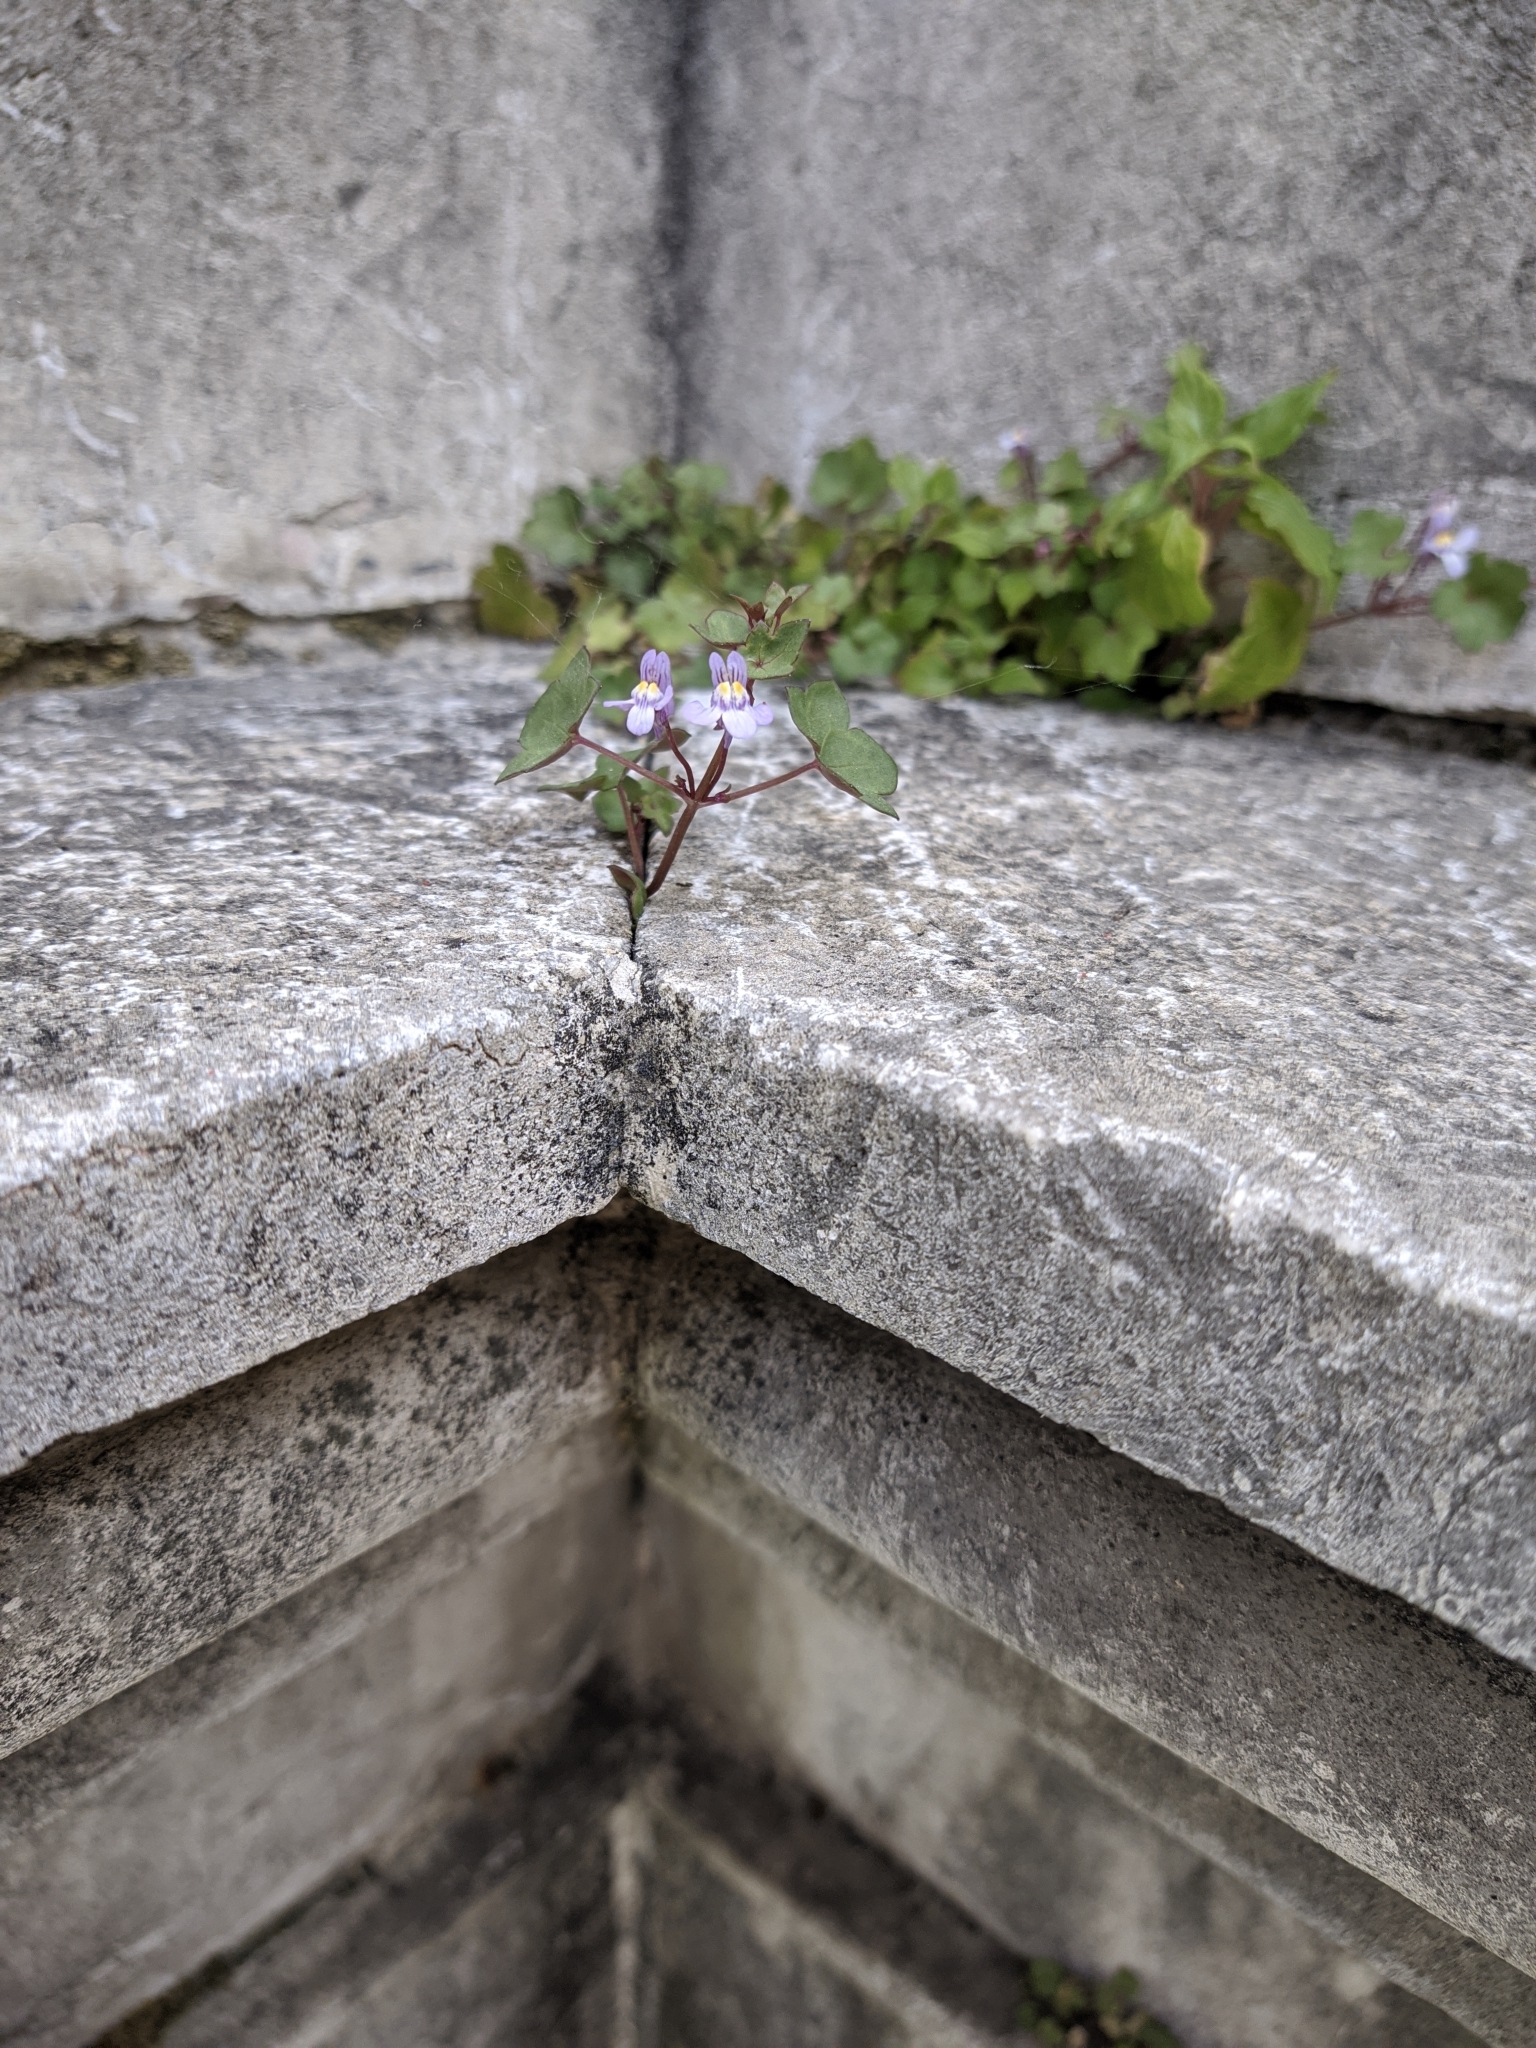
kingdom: Plantae
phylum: Tracheophyta
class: Magnoliopsida
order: Lamiales
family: Plantaginaceae
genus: Cymbalaria
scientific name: Cymbalaria muralis
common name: Ivy-leaved toadflax
